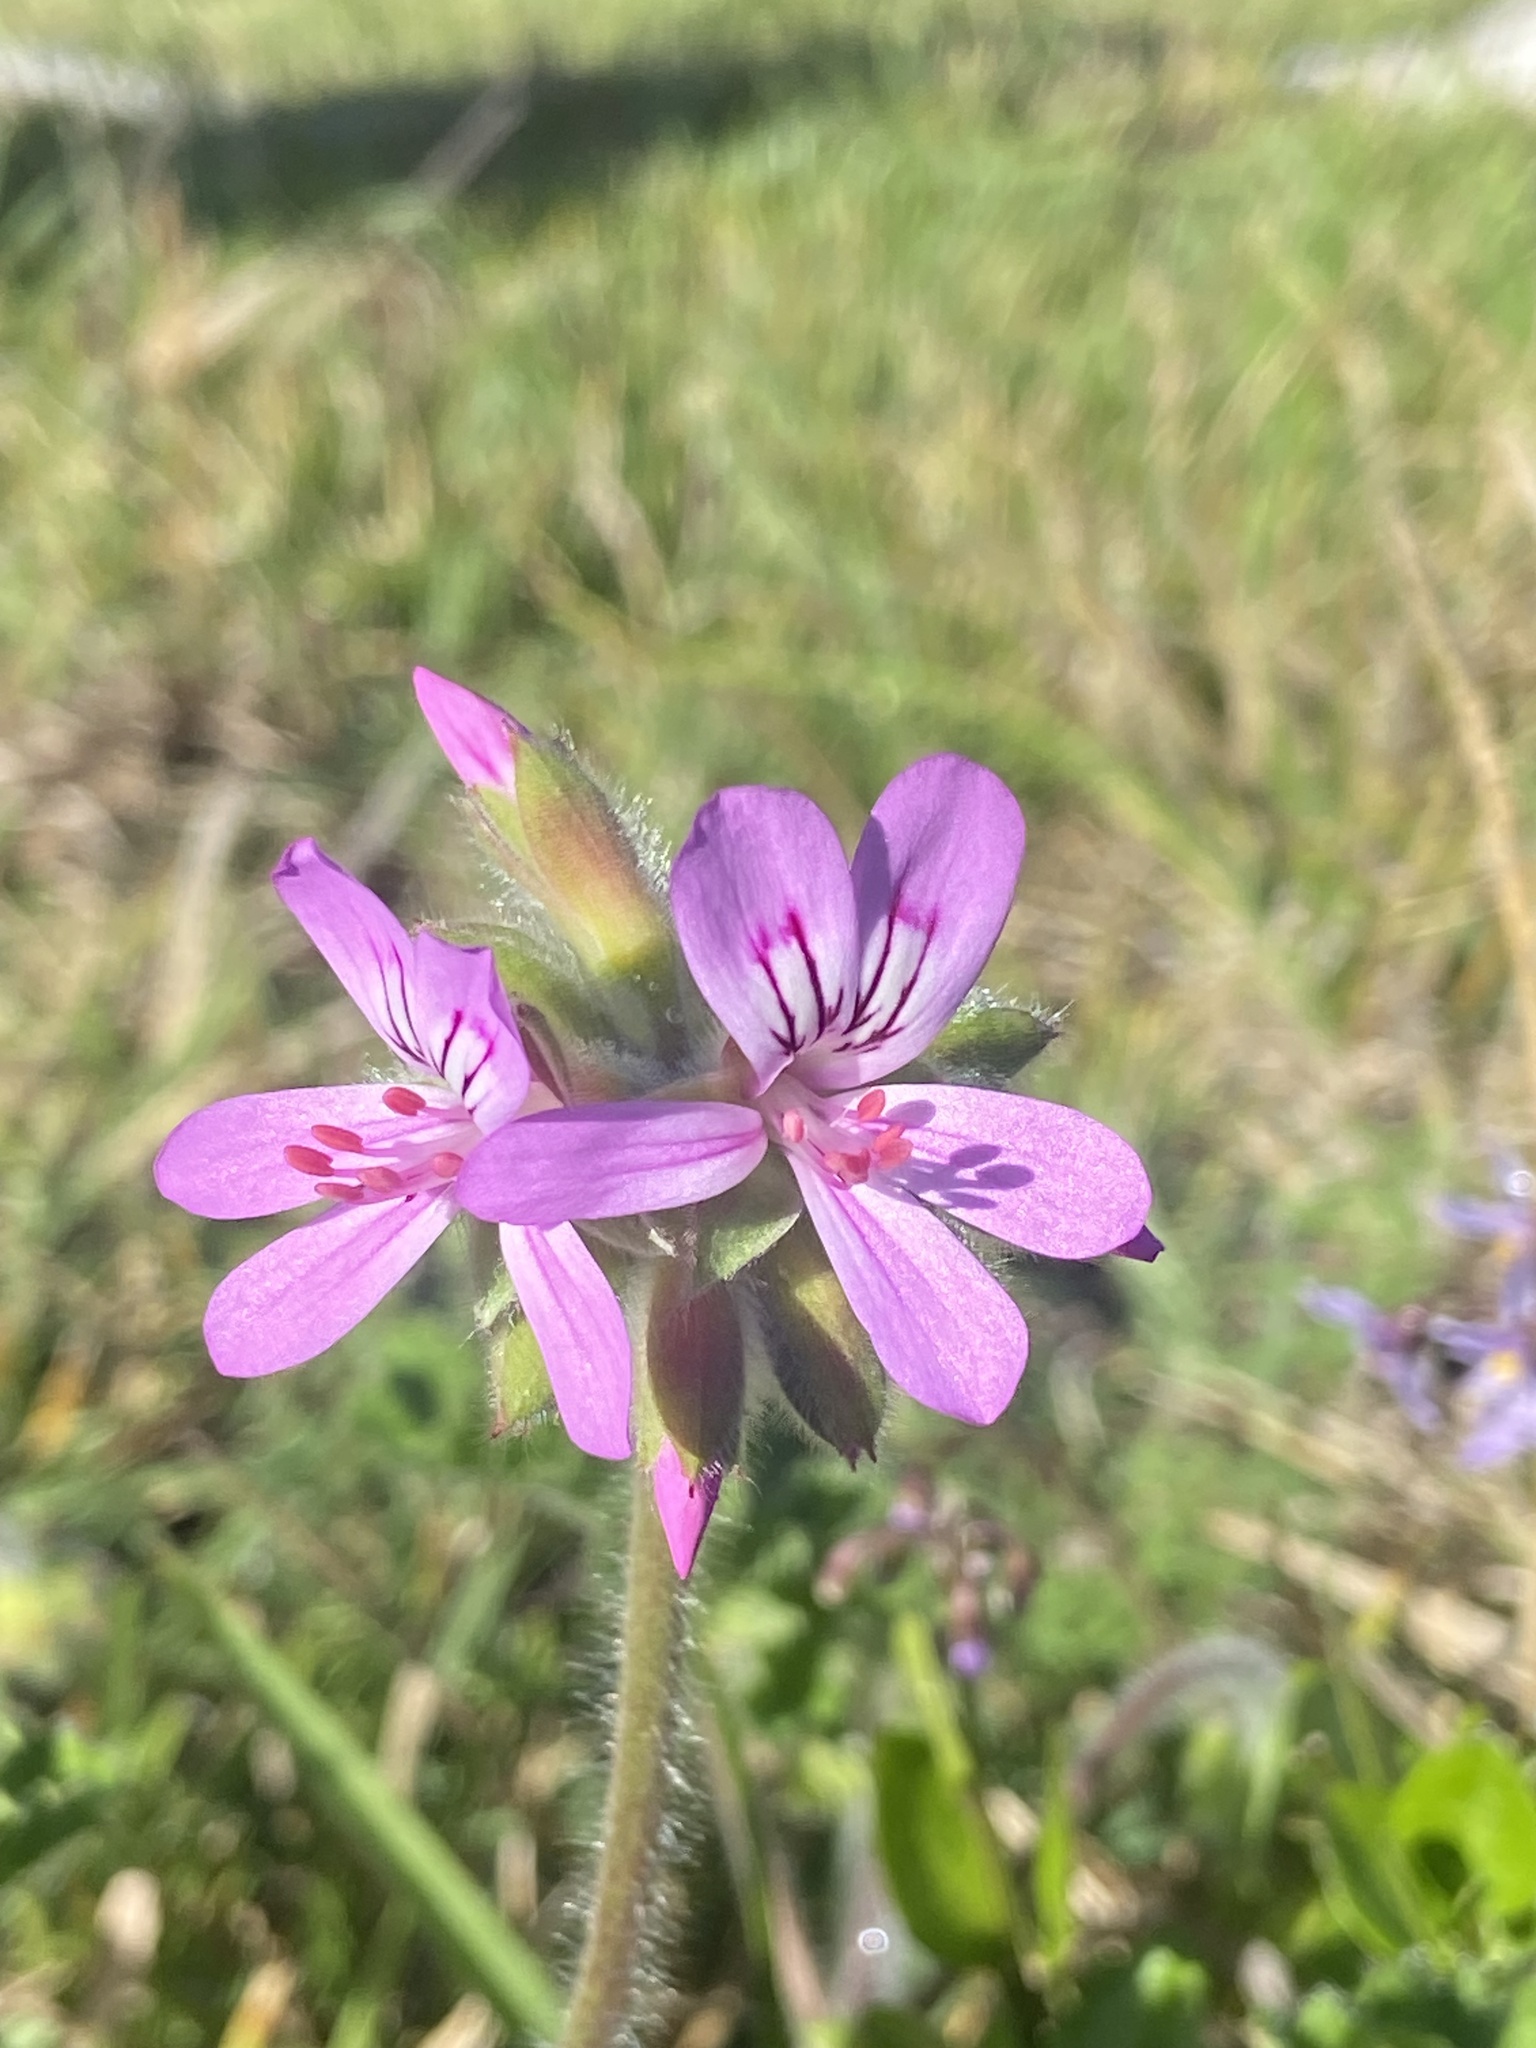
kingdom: Plantae
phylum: Tracheophyta
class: Magnoliopsida
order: Geraniales
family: Geraniaceae
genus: Pelargonium
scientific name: Pelargonium capitatum
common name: Rose scented geranium
